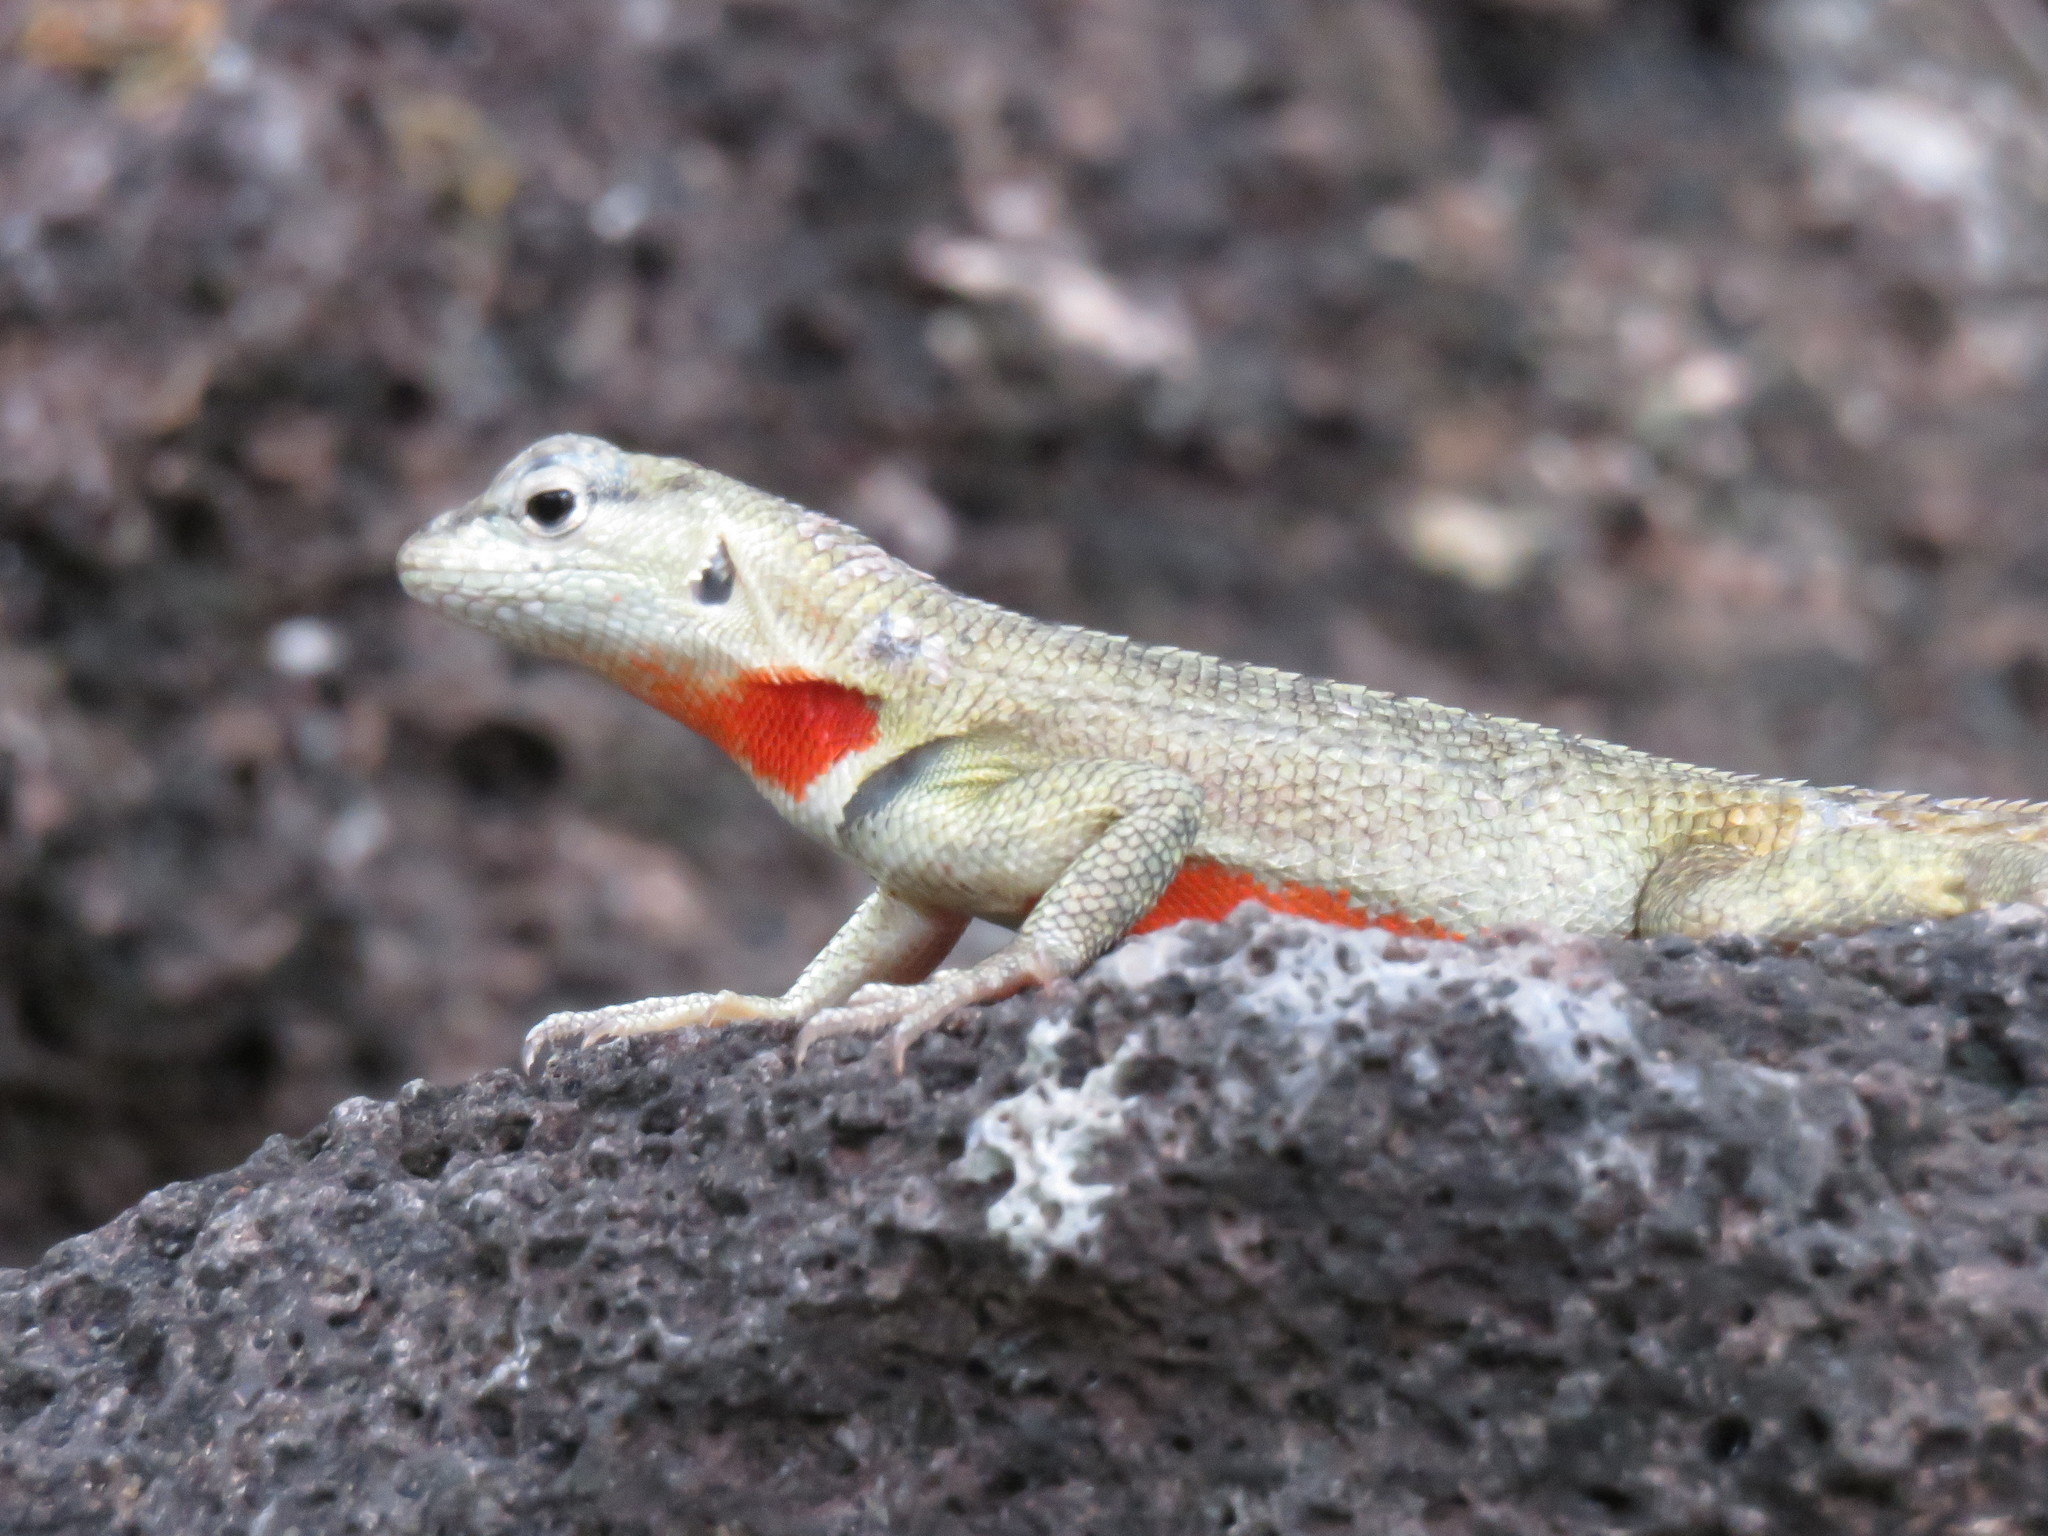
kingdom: Animalia
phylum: Chordata
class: Squamata
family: Tropiduridae
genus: Microlophus
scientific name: Microlophus bivittatus
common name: San cristobal lava lizard
